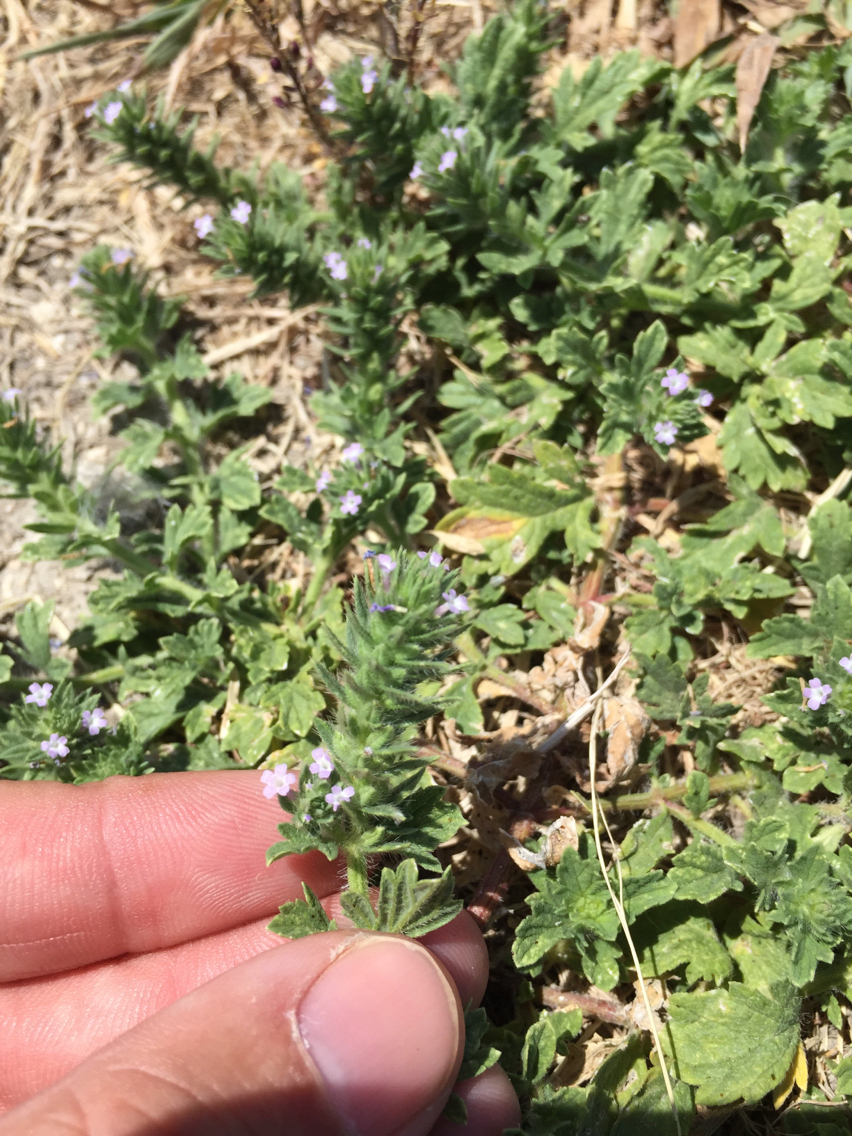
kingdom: Plantae
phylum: Tracheophyta
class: Magnoliopsida
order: Lamiales
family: Verbenaceae
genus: Verbena
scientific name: Verbena bracteata
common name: Bracted vervain
